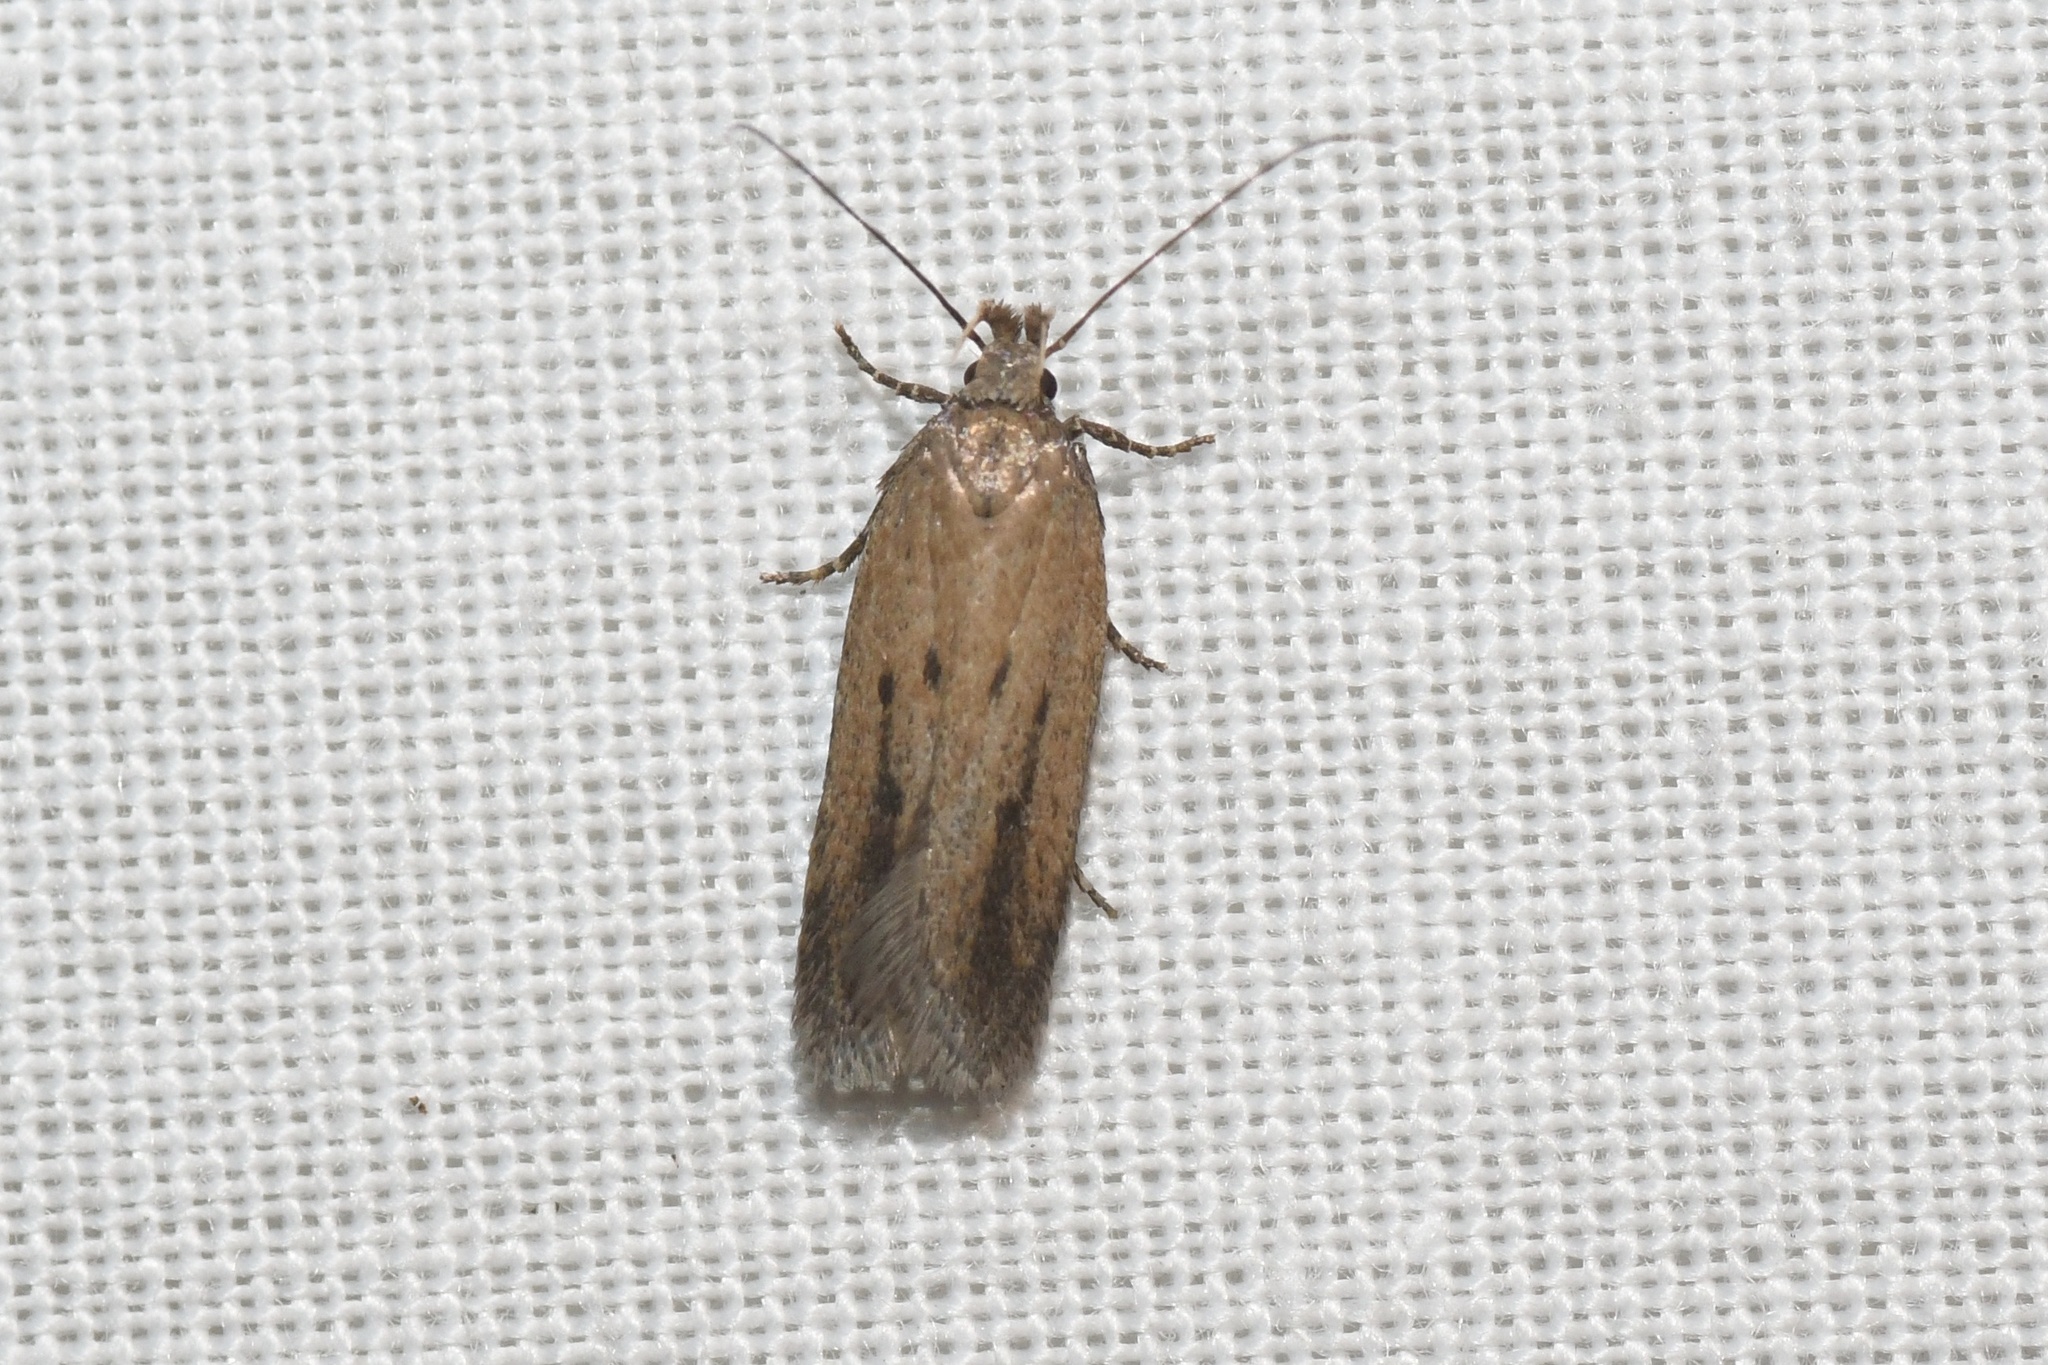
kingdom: Animalia
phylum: Arthropoda
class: Insecta
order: Lepidoptera
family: Gelechiidae
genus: Chionodes
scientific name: Chionodes praeclarella
